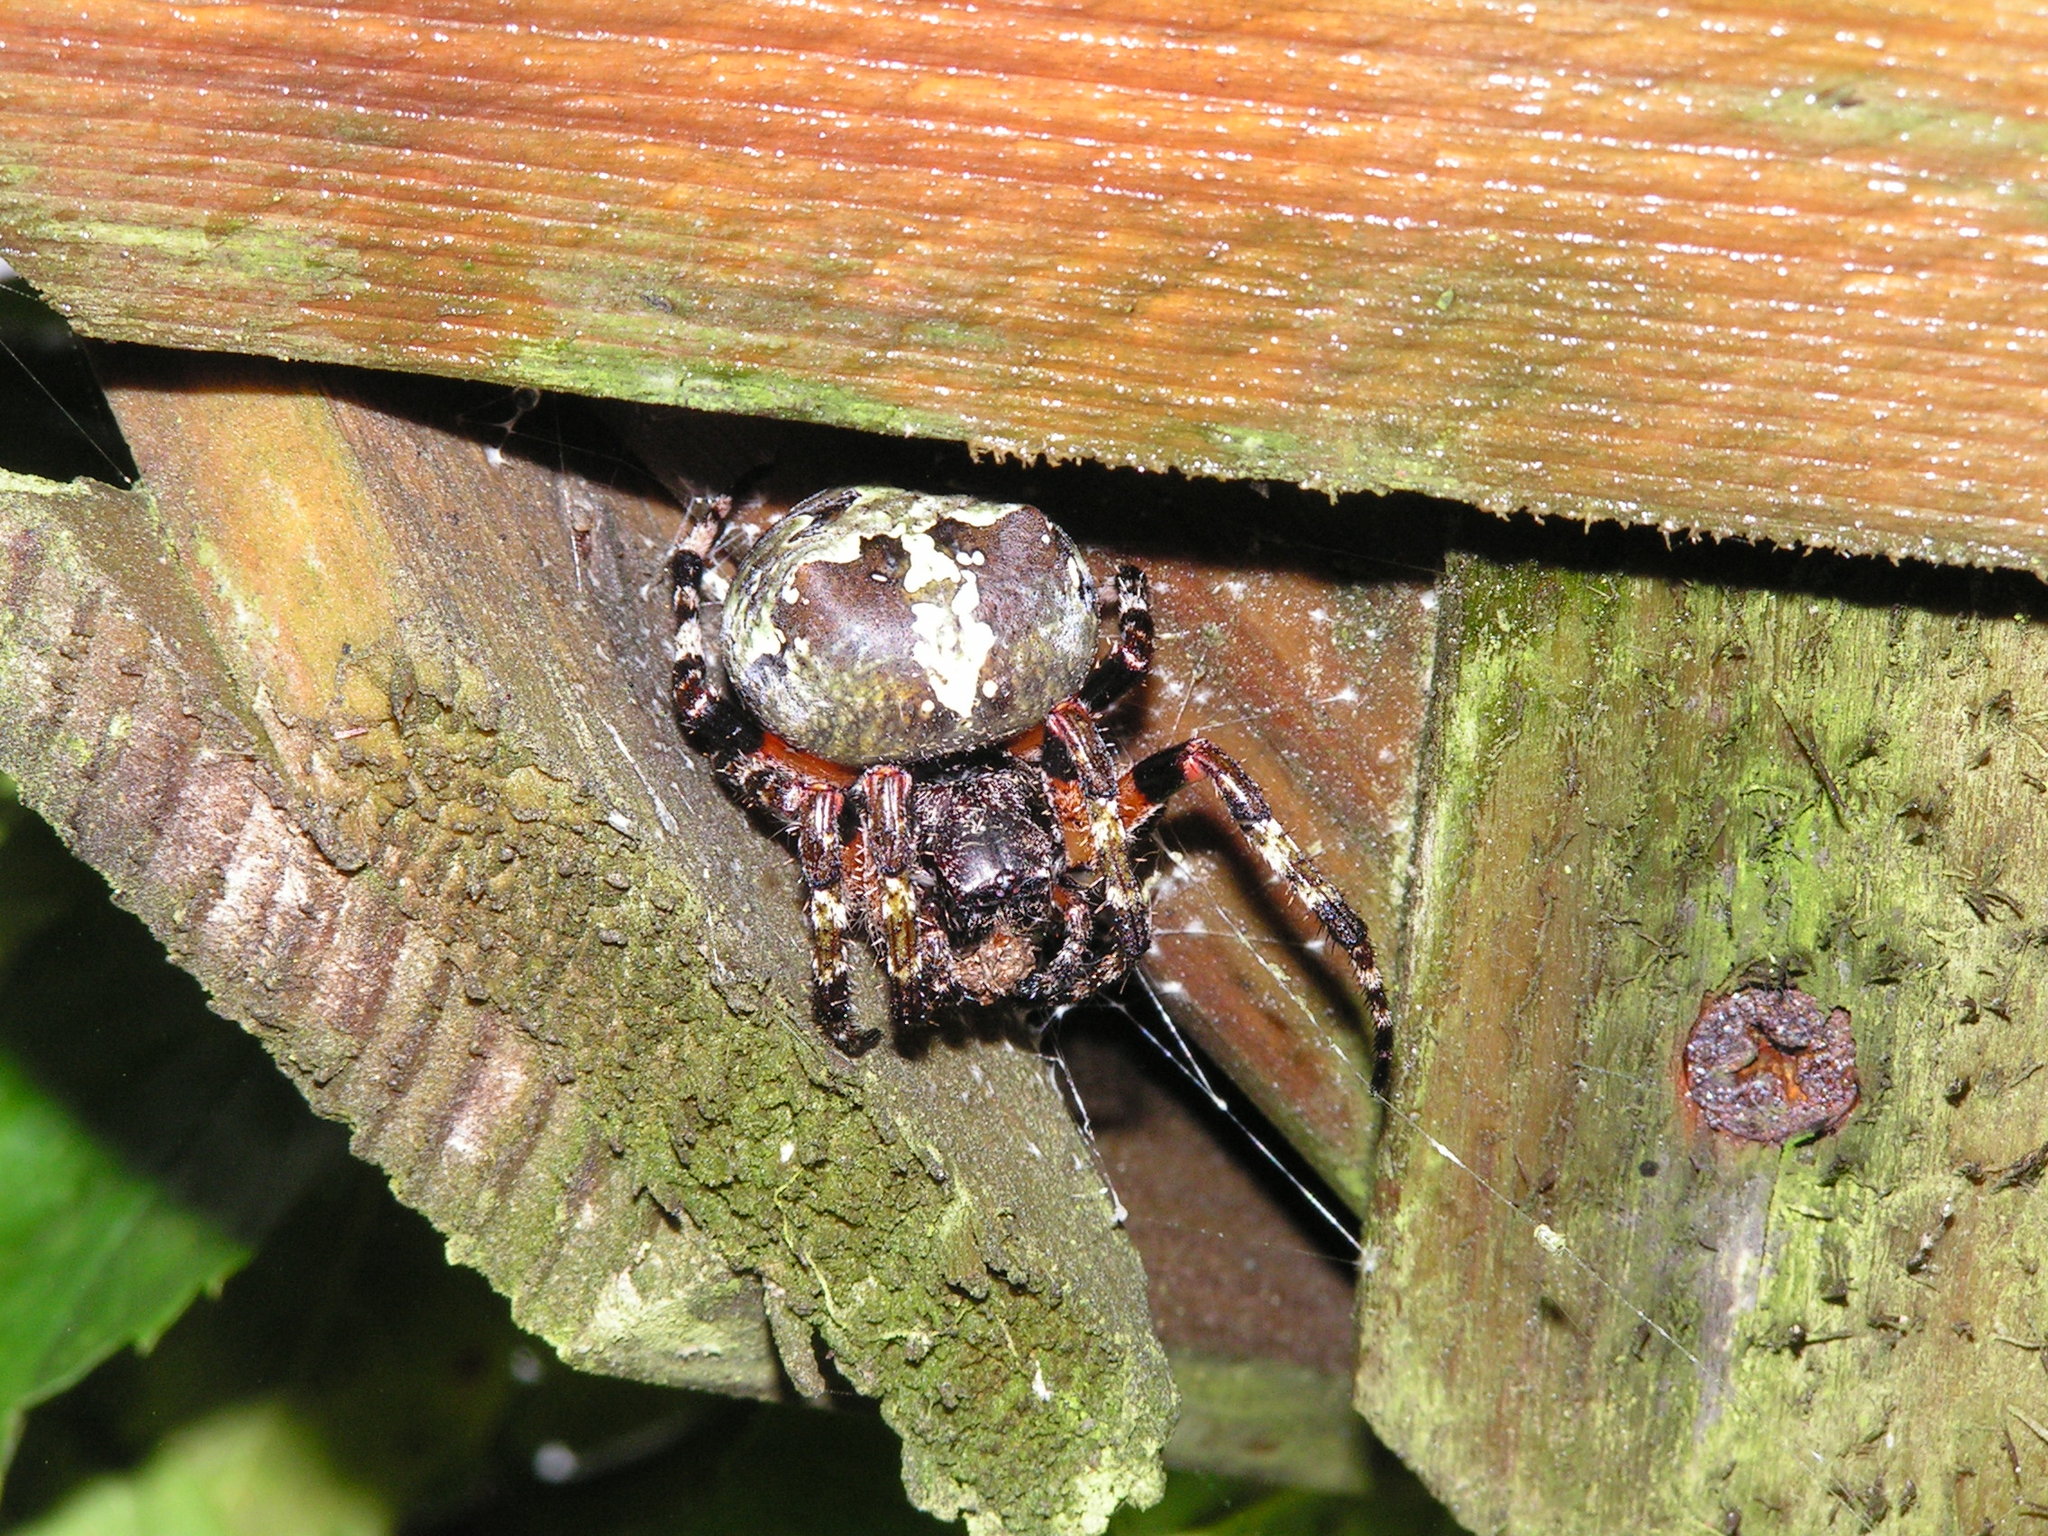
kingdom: Animalia
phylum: Arthropoda
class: Arachnida
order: Araneae
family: Araneidae
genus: Araneus
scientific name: Araneus bicentenarius
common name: Giant lichen orbweaver
